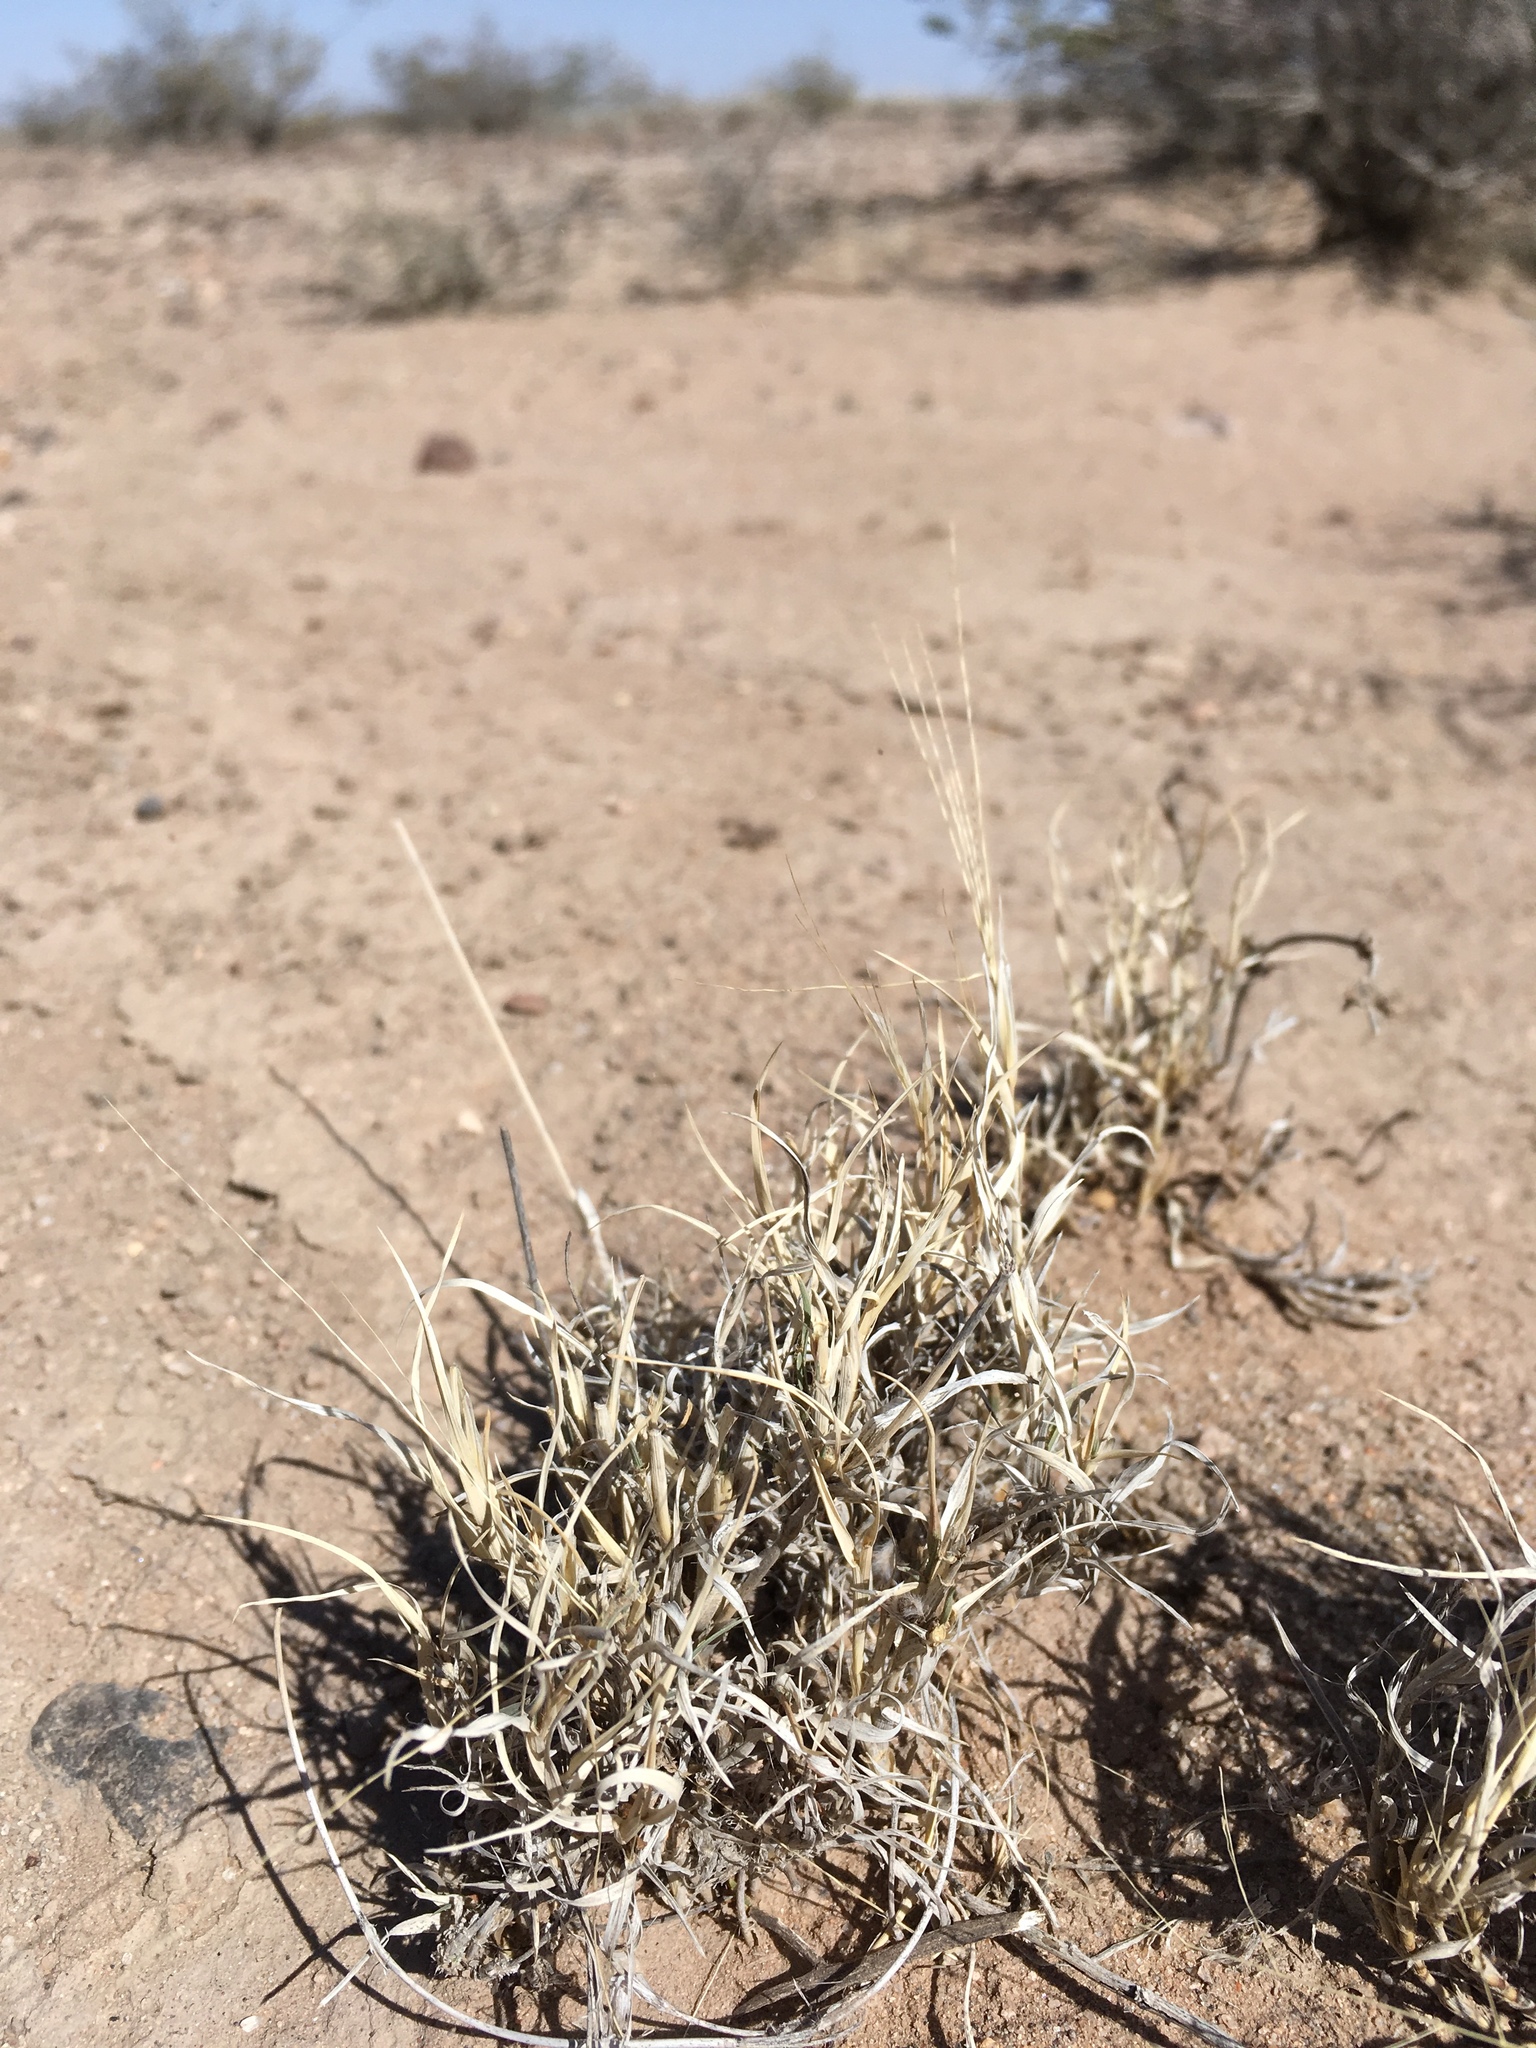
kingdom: Plantae
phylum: Tracheophyta
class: Liliopsida
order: Poales
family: Poaceae
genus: Scleropogon
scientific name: Scleropogon brevifolius
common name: Burro grass
